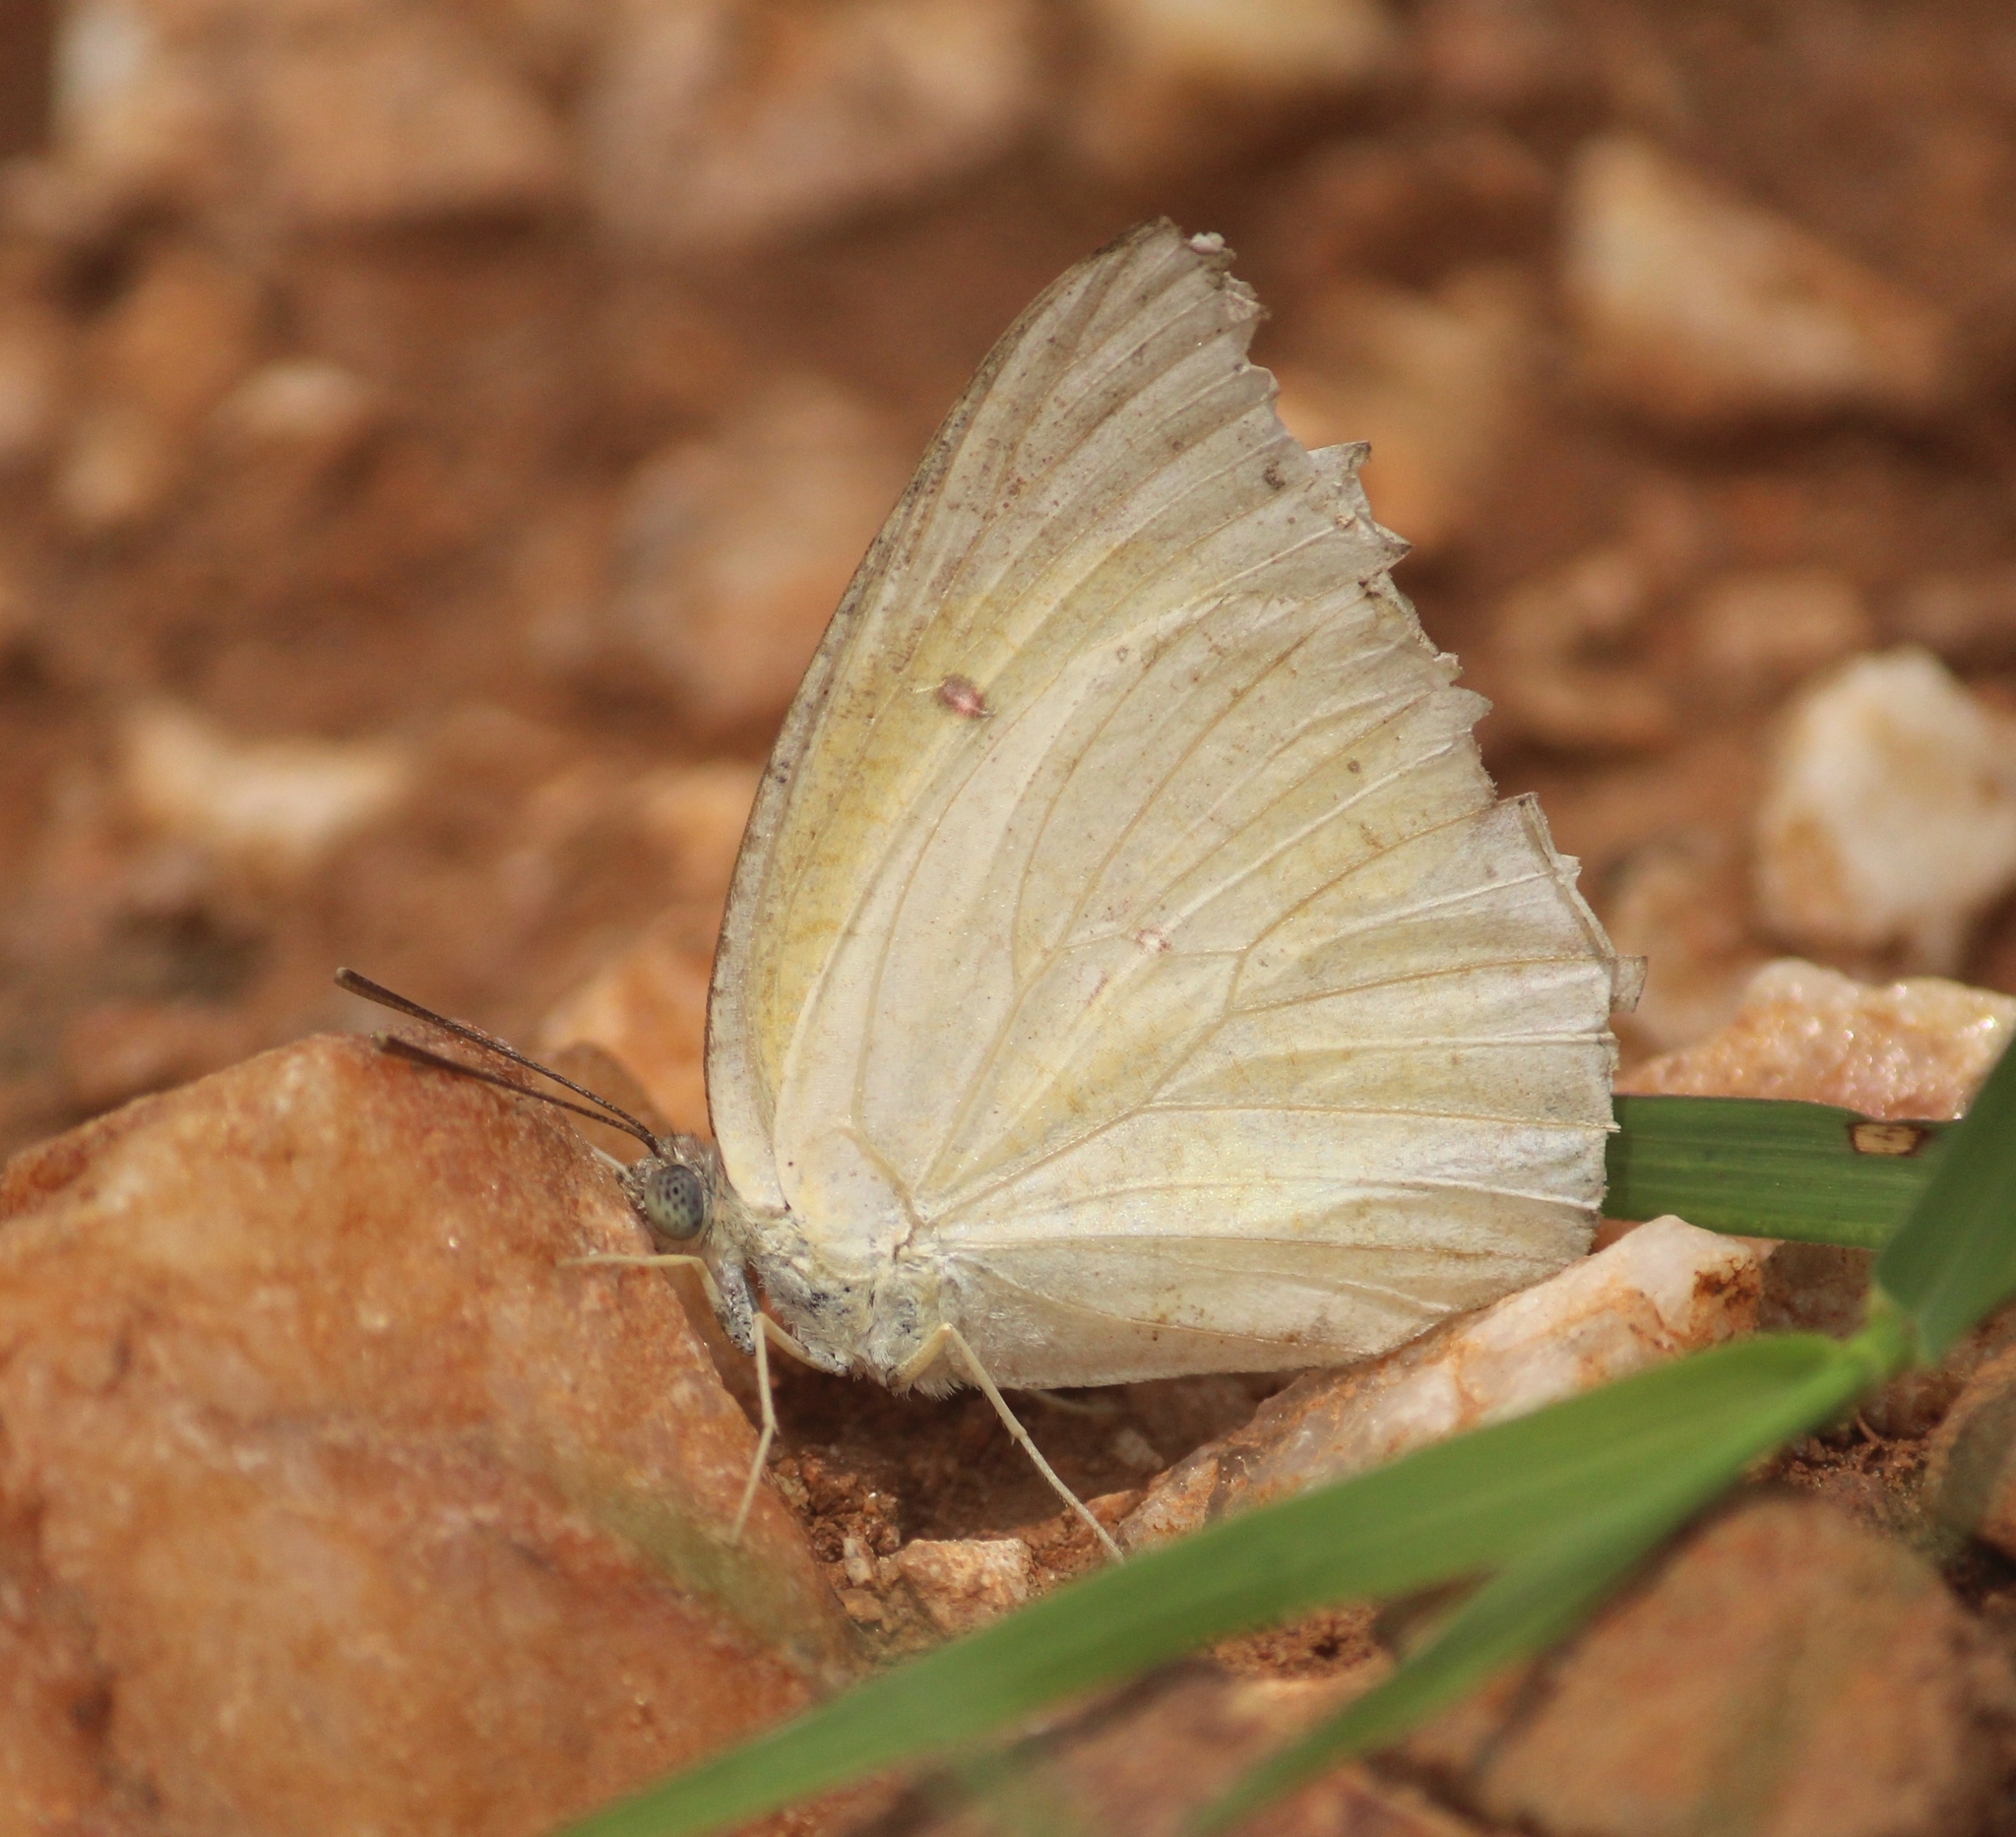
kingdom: Animalia
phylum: Arthropoda
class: Insecta
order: Lepidoptera
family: Pieridae
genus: Catopsilia
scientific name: Catopsilia pomona
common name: Common emigrant
